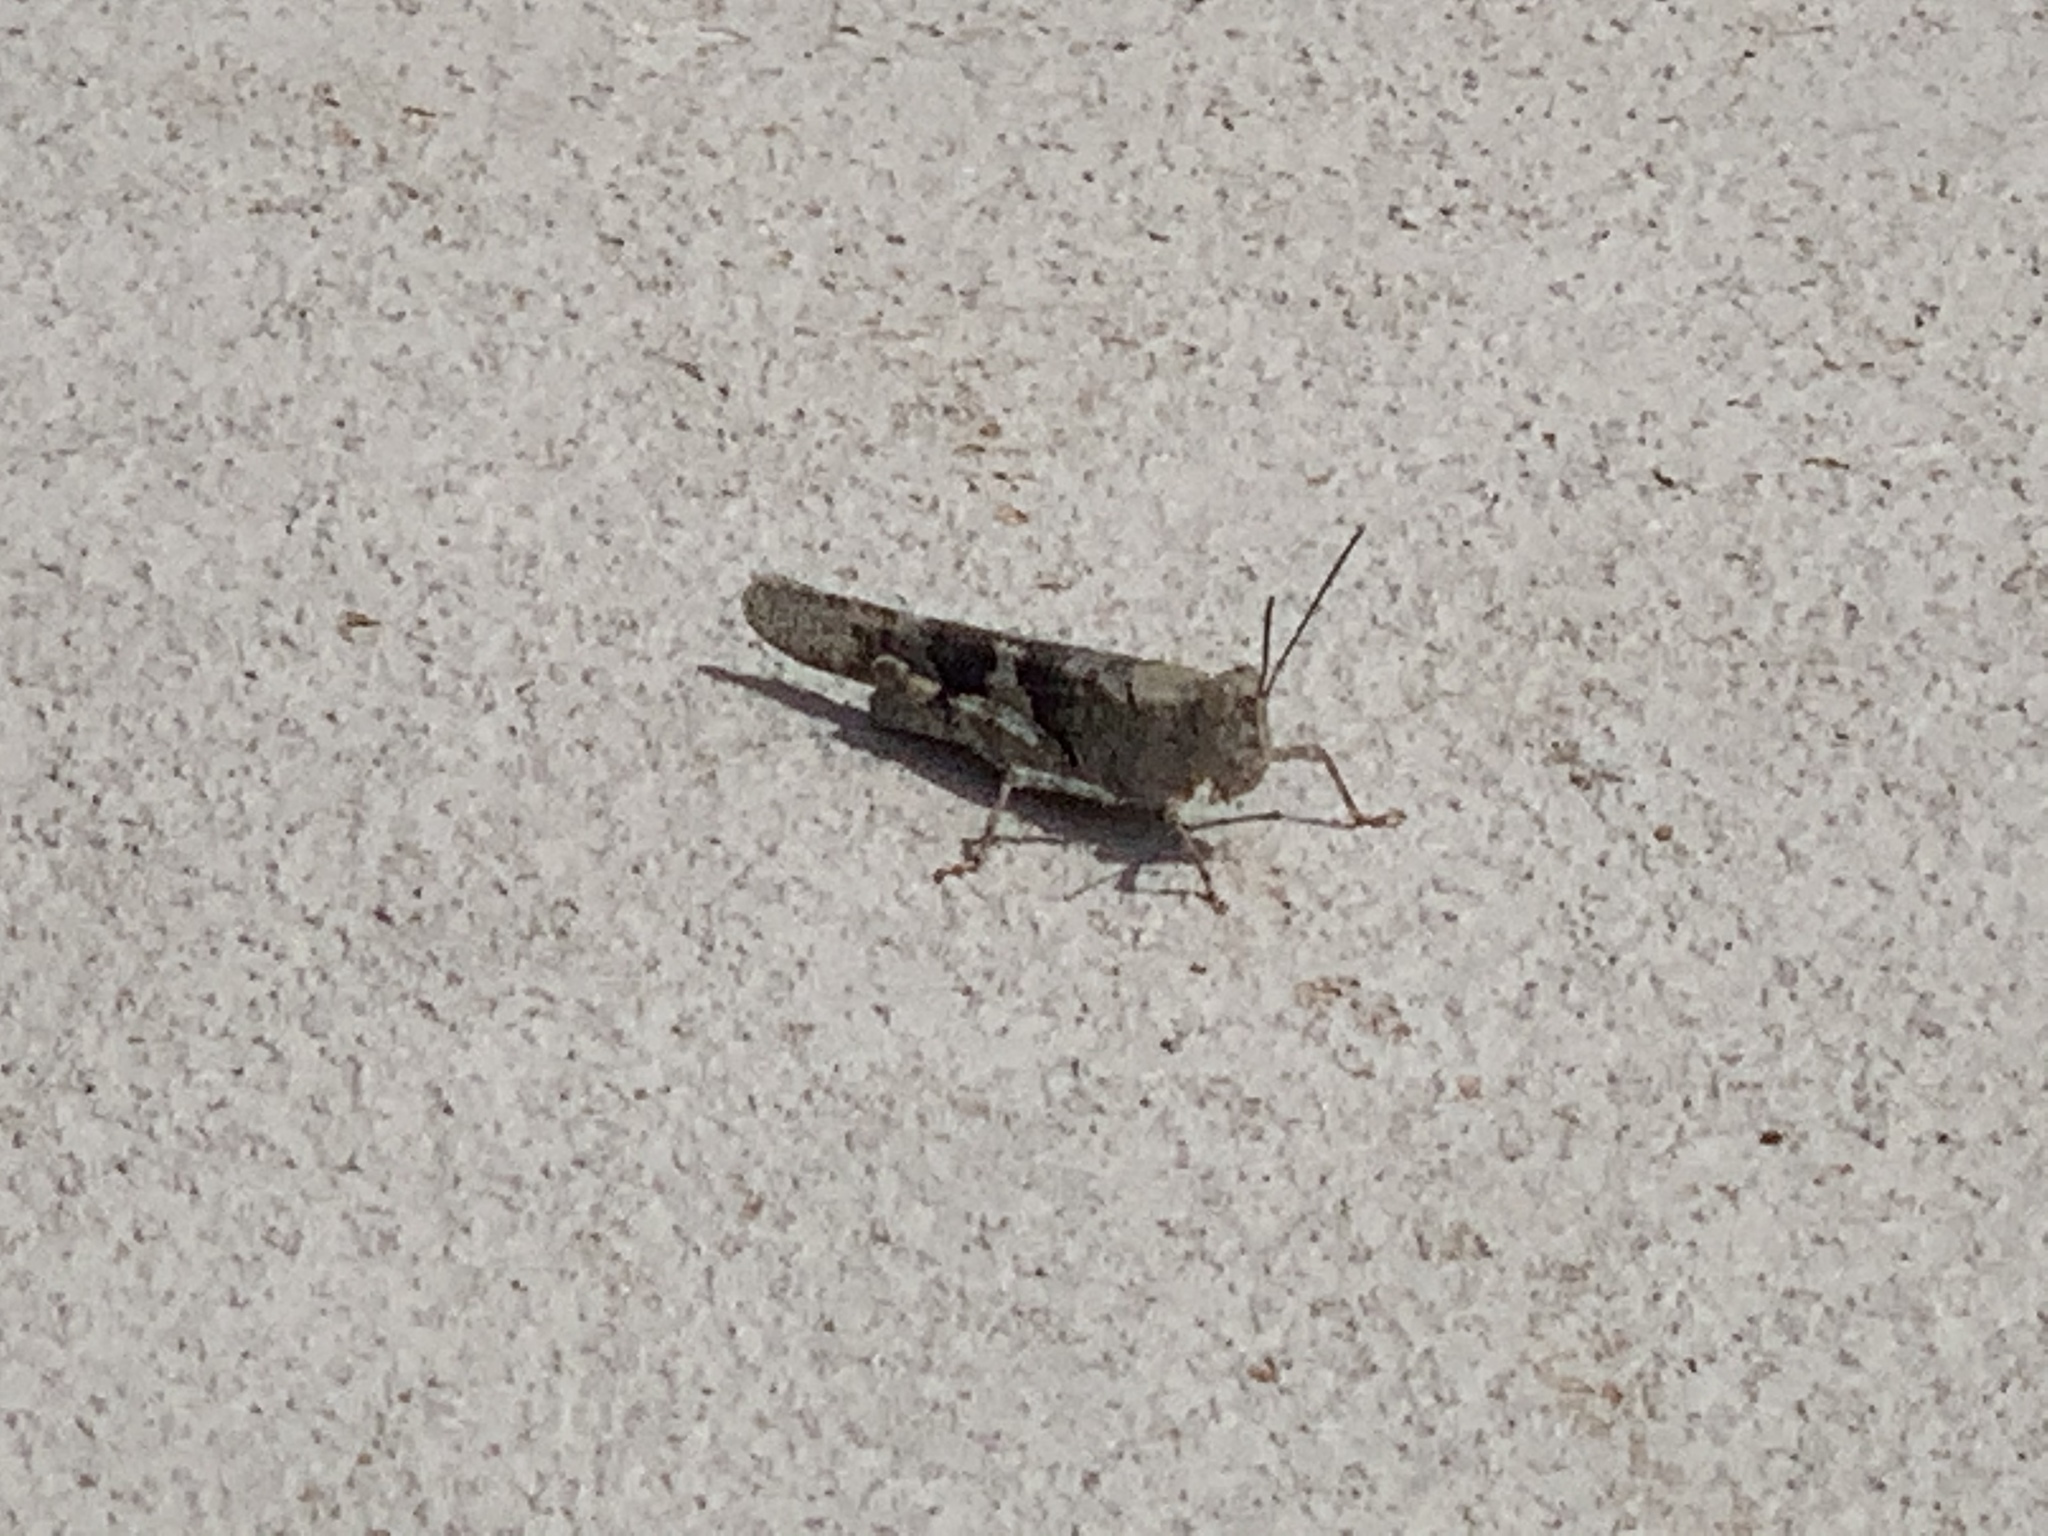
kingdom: Animalia
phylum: Arthropoda
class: Insecta
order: Orthoptera
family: Acrididae
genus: Trimerotropis
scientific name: Trimerotropis pallidipennis
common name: Pallid-winged grasshopper
